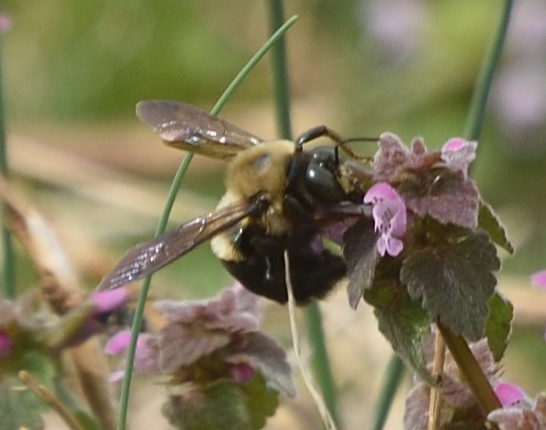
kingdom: Animalia
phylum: Arthropoda
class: Insecta
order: Hymenoptera
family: Apidae
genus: Xylocopa
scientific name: Xylocopa virginica
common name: Carpenter bee
